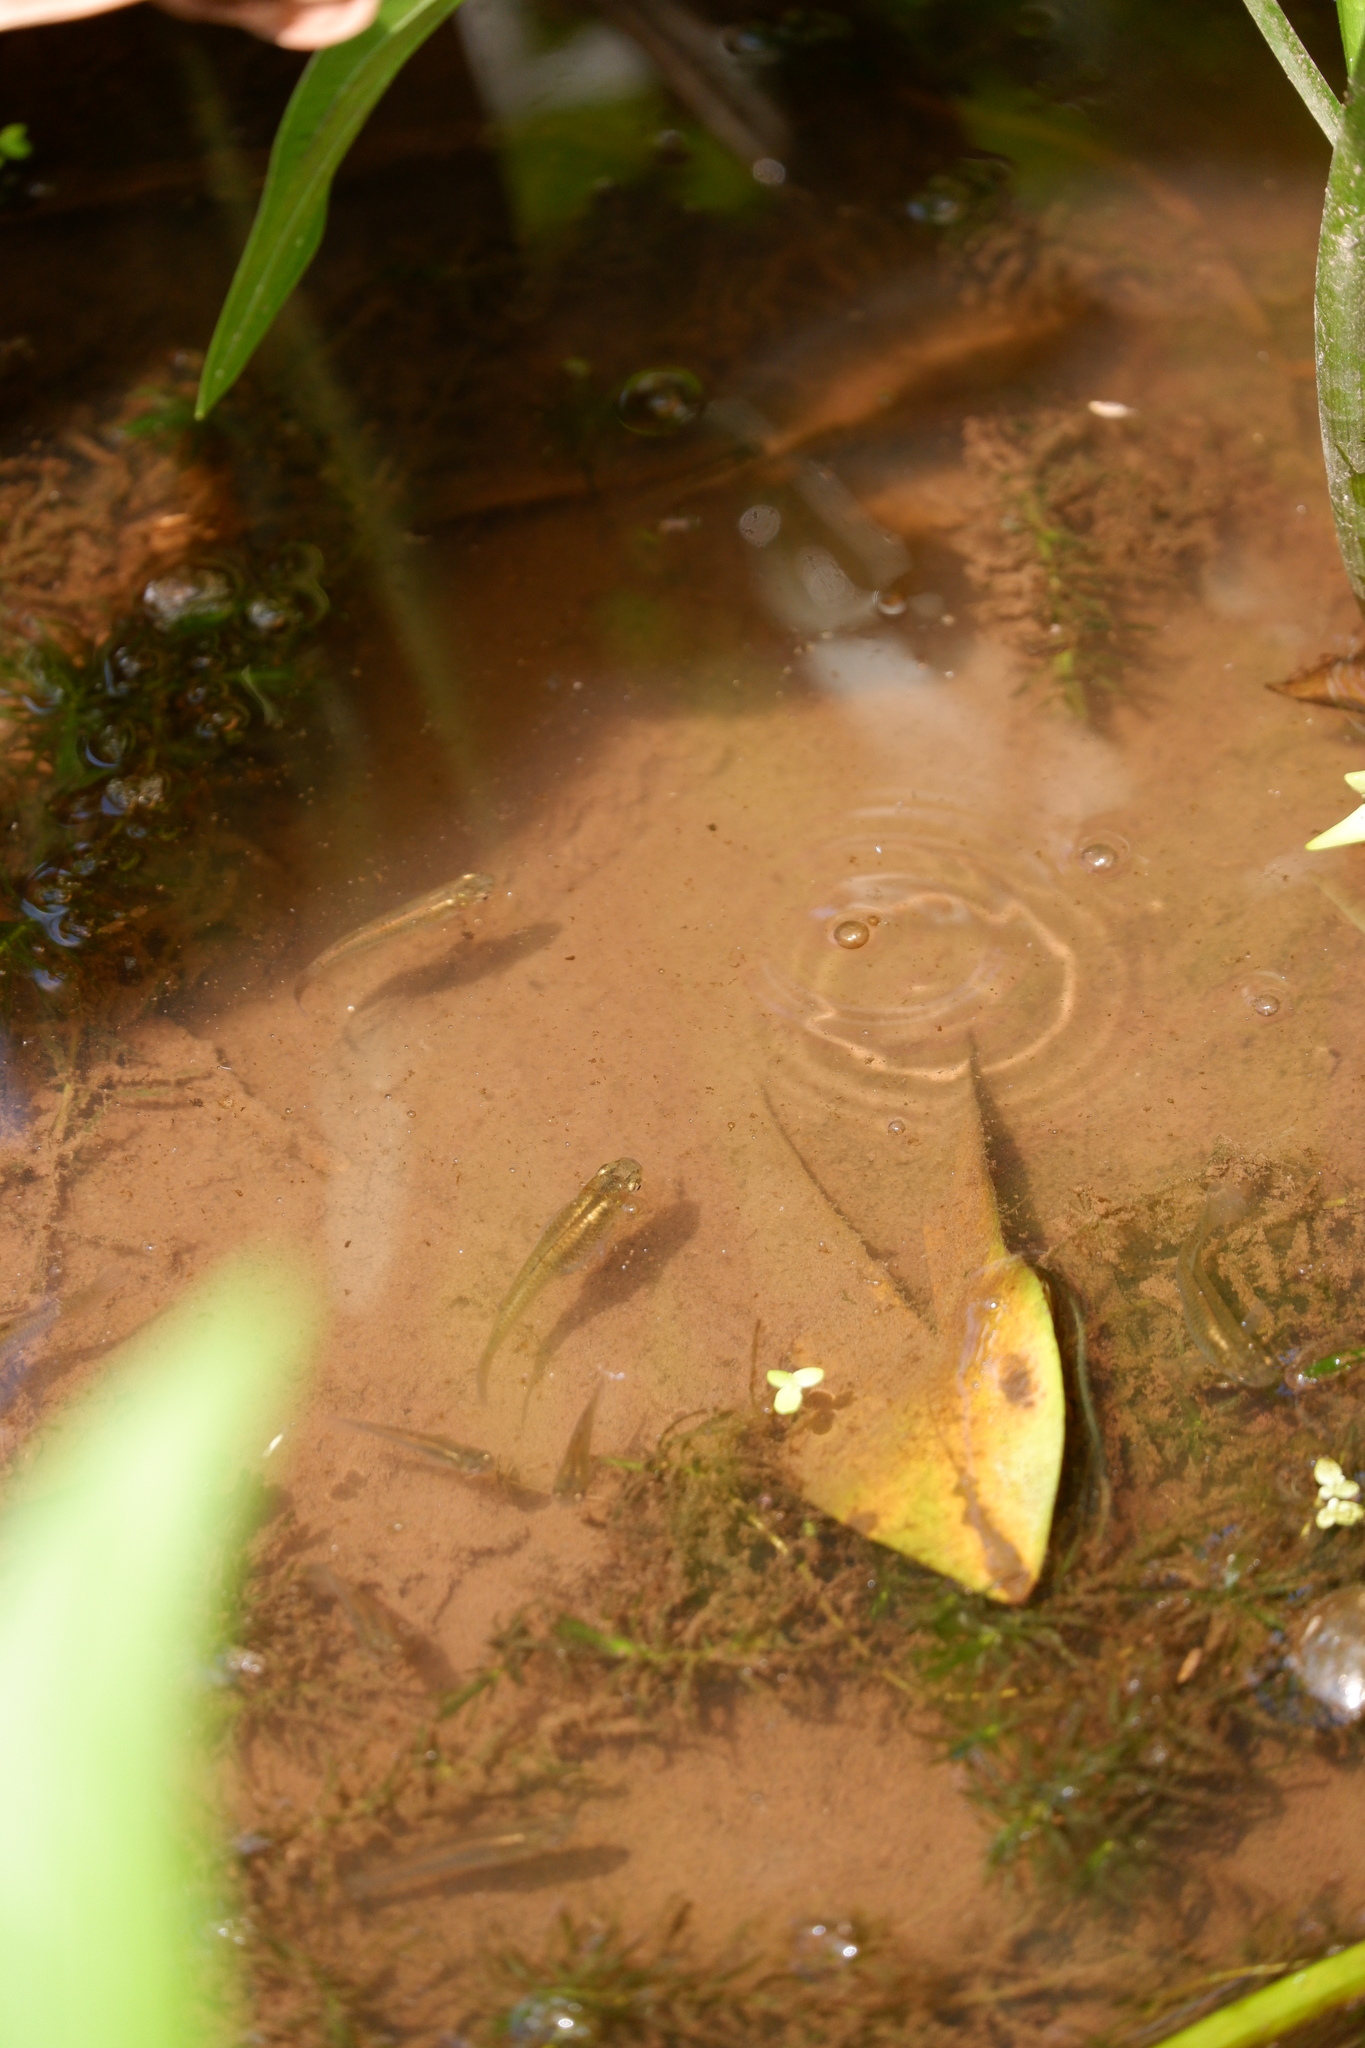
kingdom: Animalia
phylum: Chordata
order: Cyprinodontiformes
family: Poeciliidae
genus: Gambusia
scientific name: Gambusia holbrooki
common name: Eastern mosquitofish
